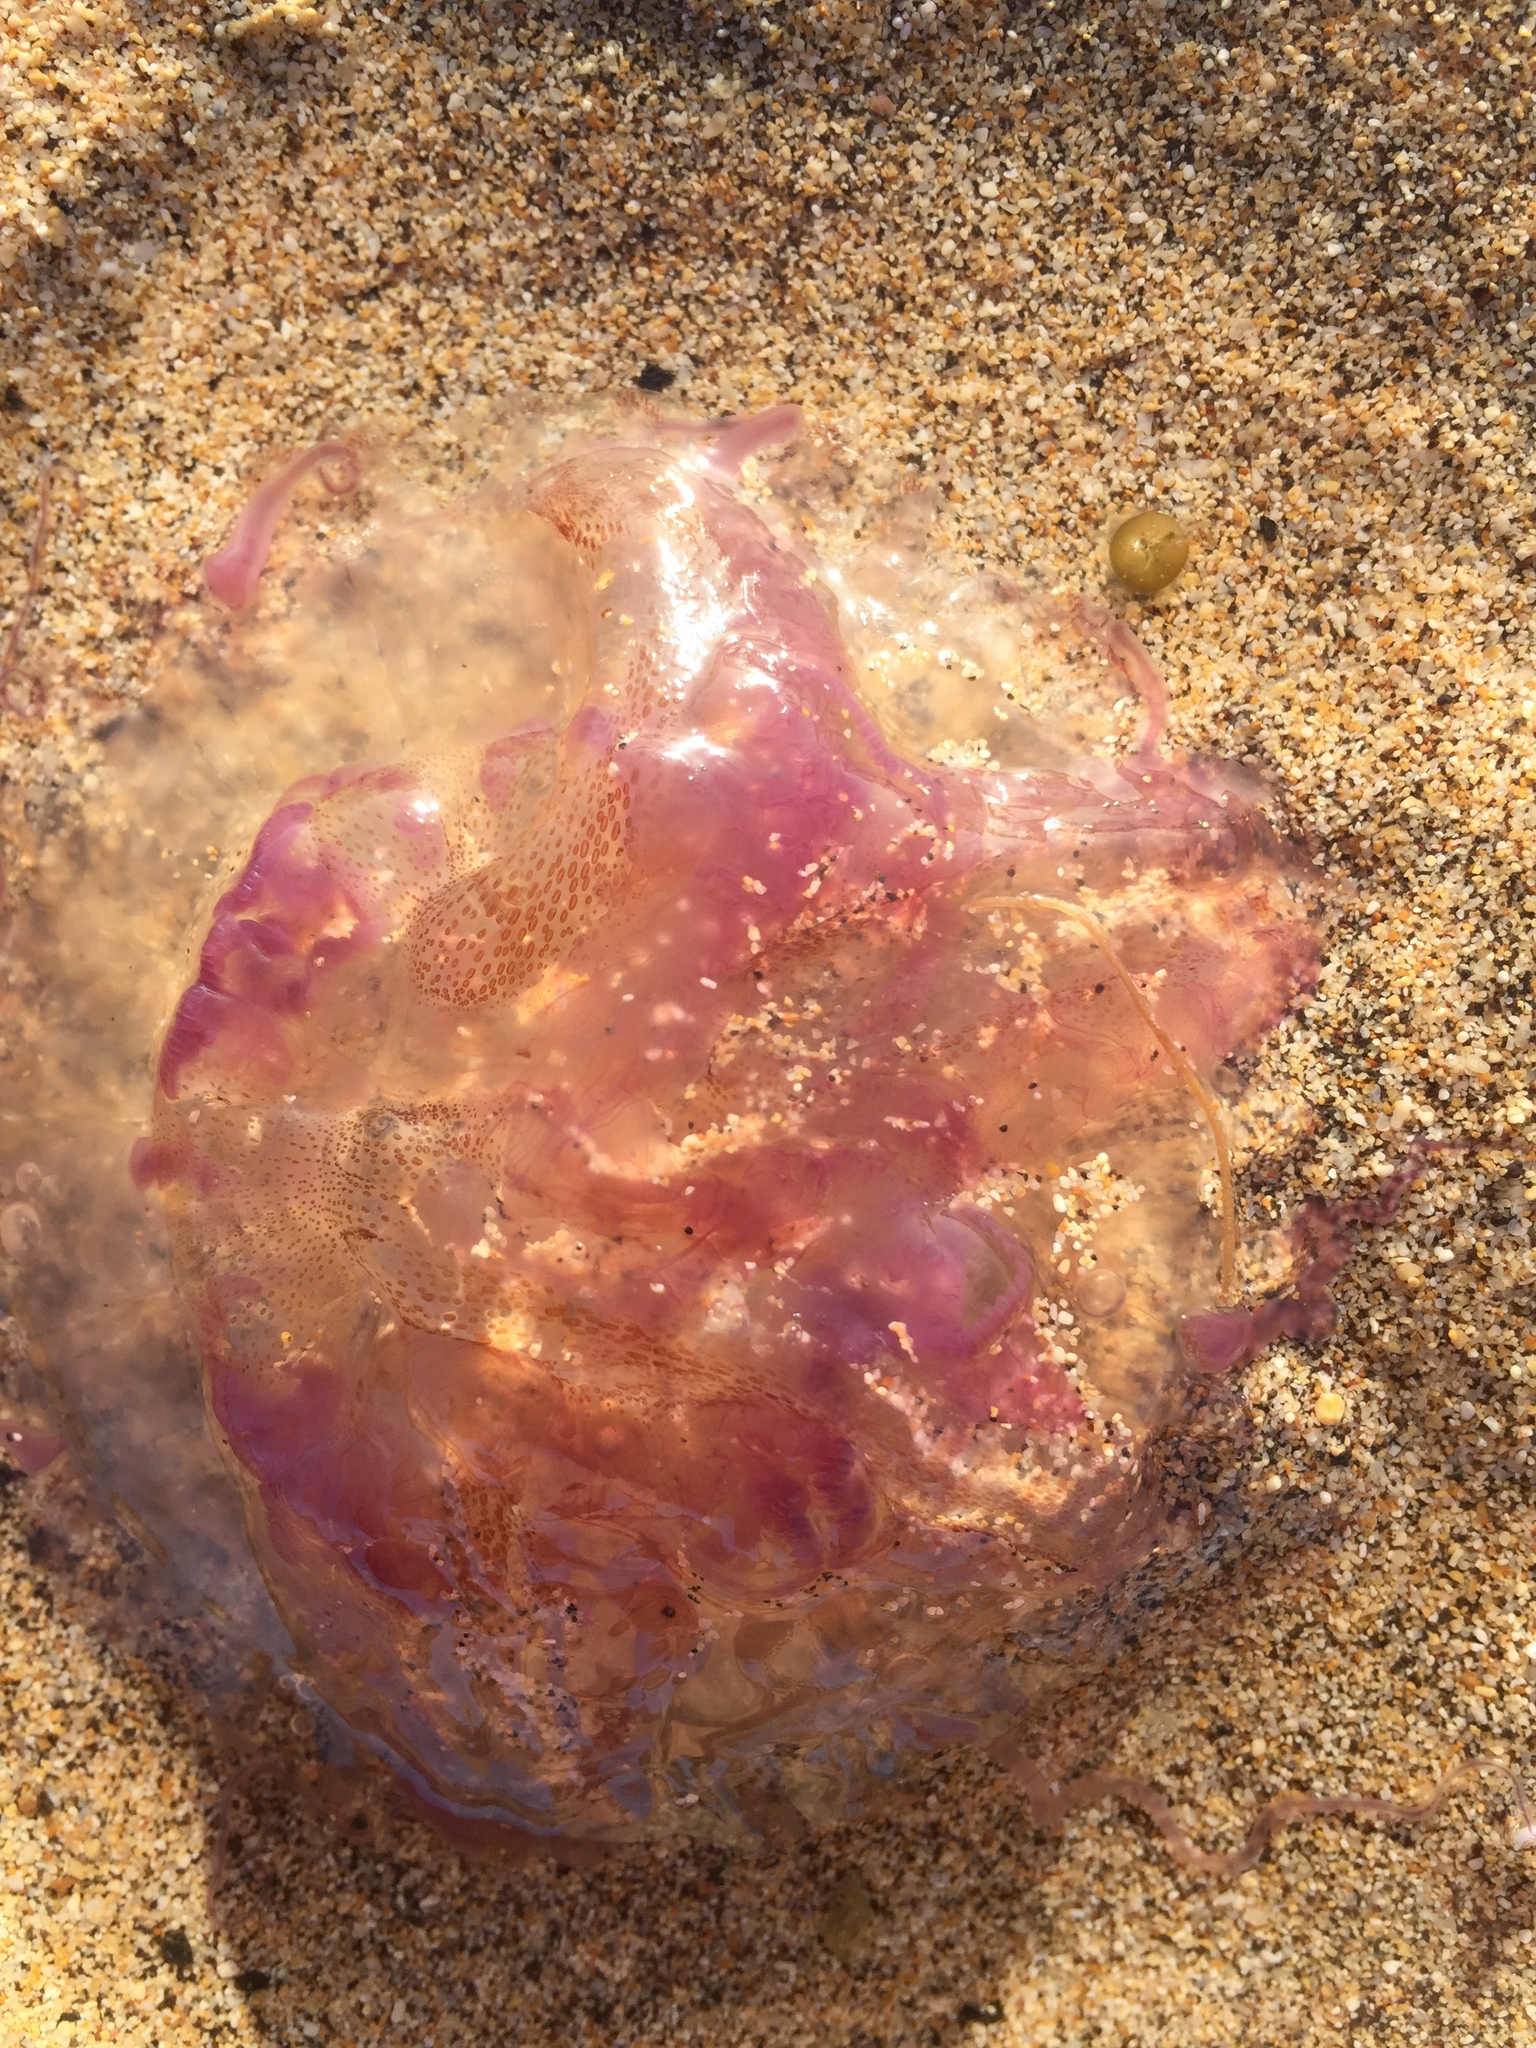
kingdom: Animalia
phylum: Cnidaria
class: Scyphozoa
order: Semaeostomeae
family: Pelagiidae
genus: Pelagia
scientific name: Pelagia noctiluca
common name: Mauve stinger
